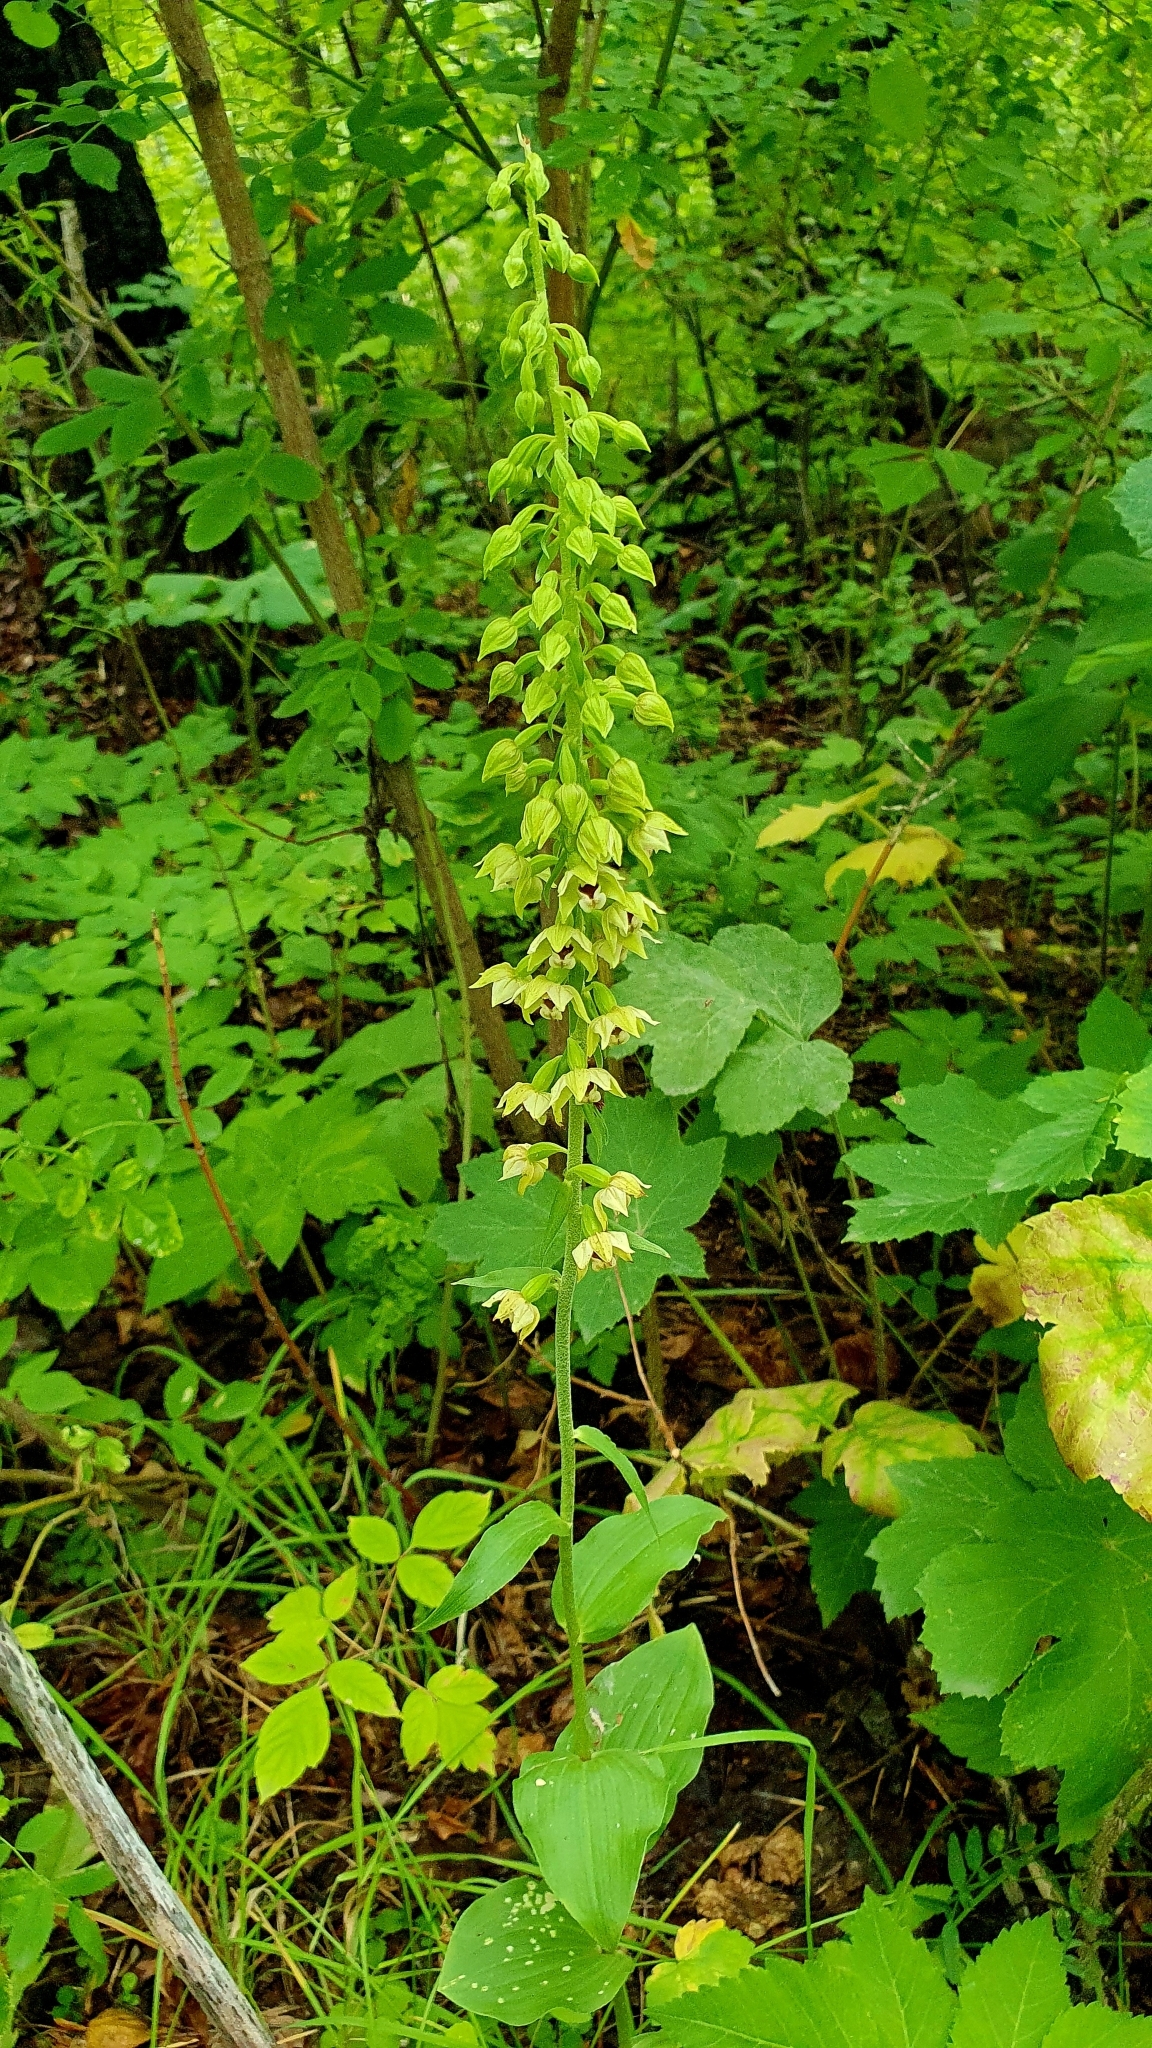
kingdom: Plantae
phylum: Tracheophyta
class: Liliopsida
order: Asparagales
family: Orchidaceae
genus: Epipactis
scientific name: Epipactis helleborine
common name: Broad-leaved helleborine
